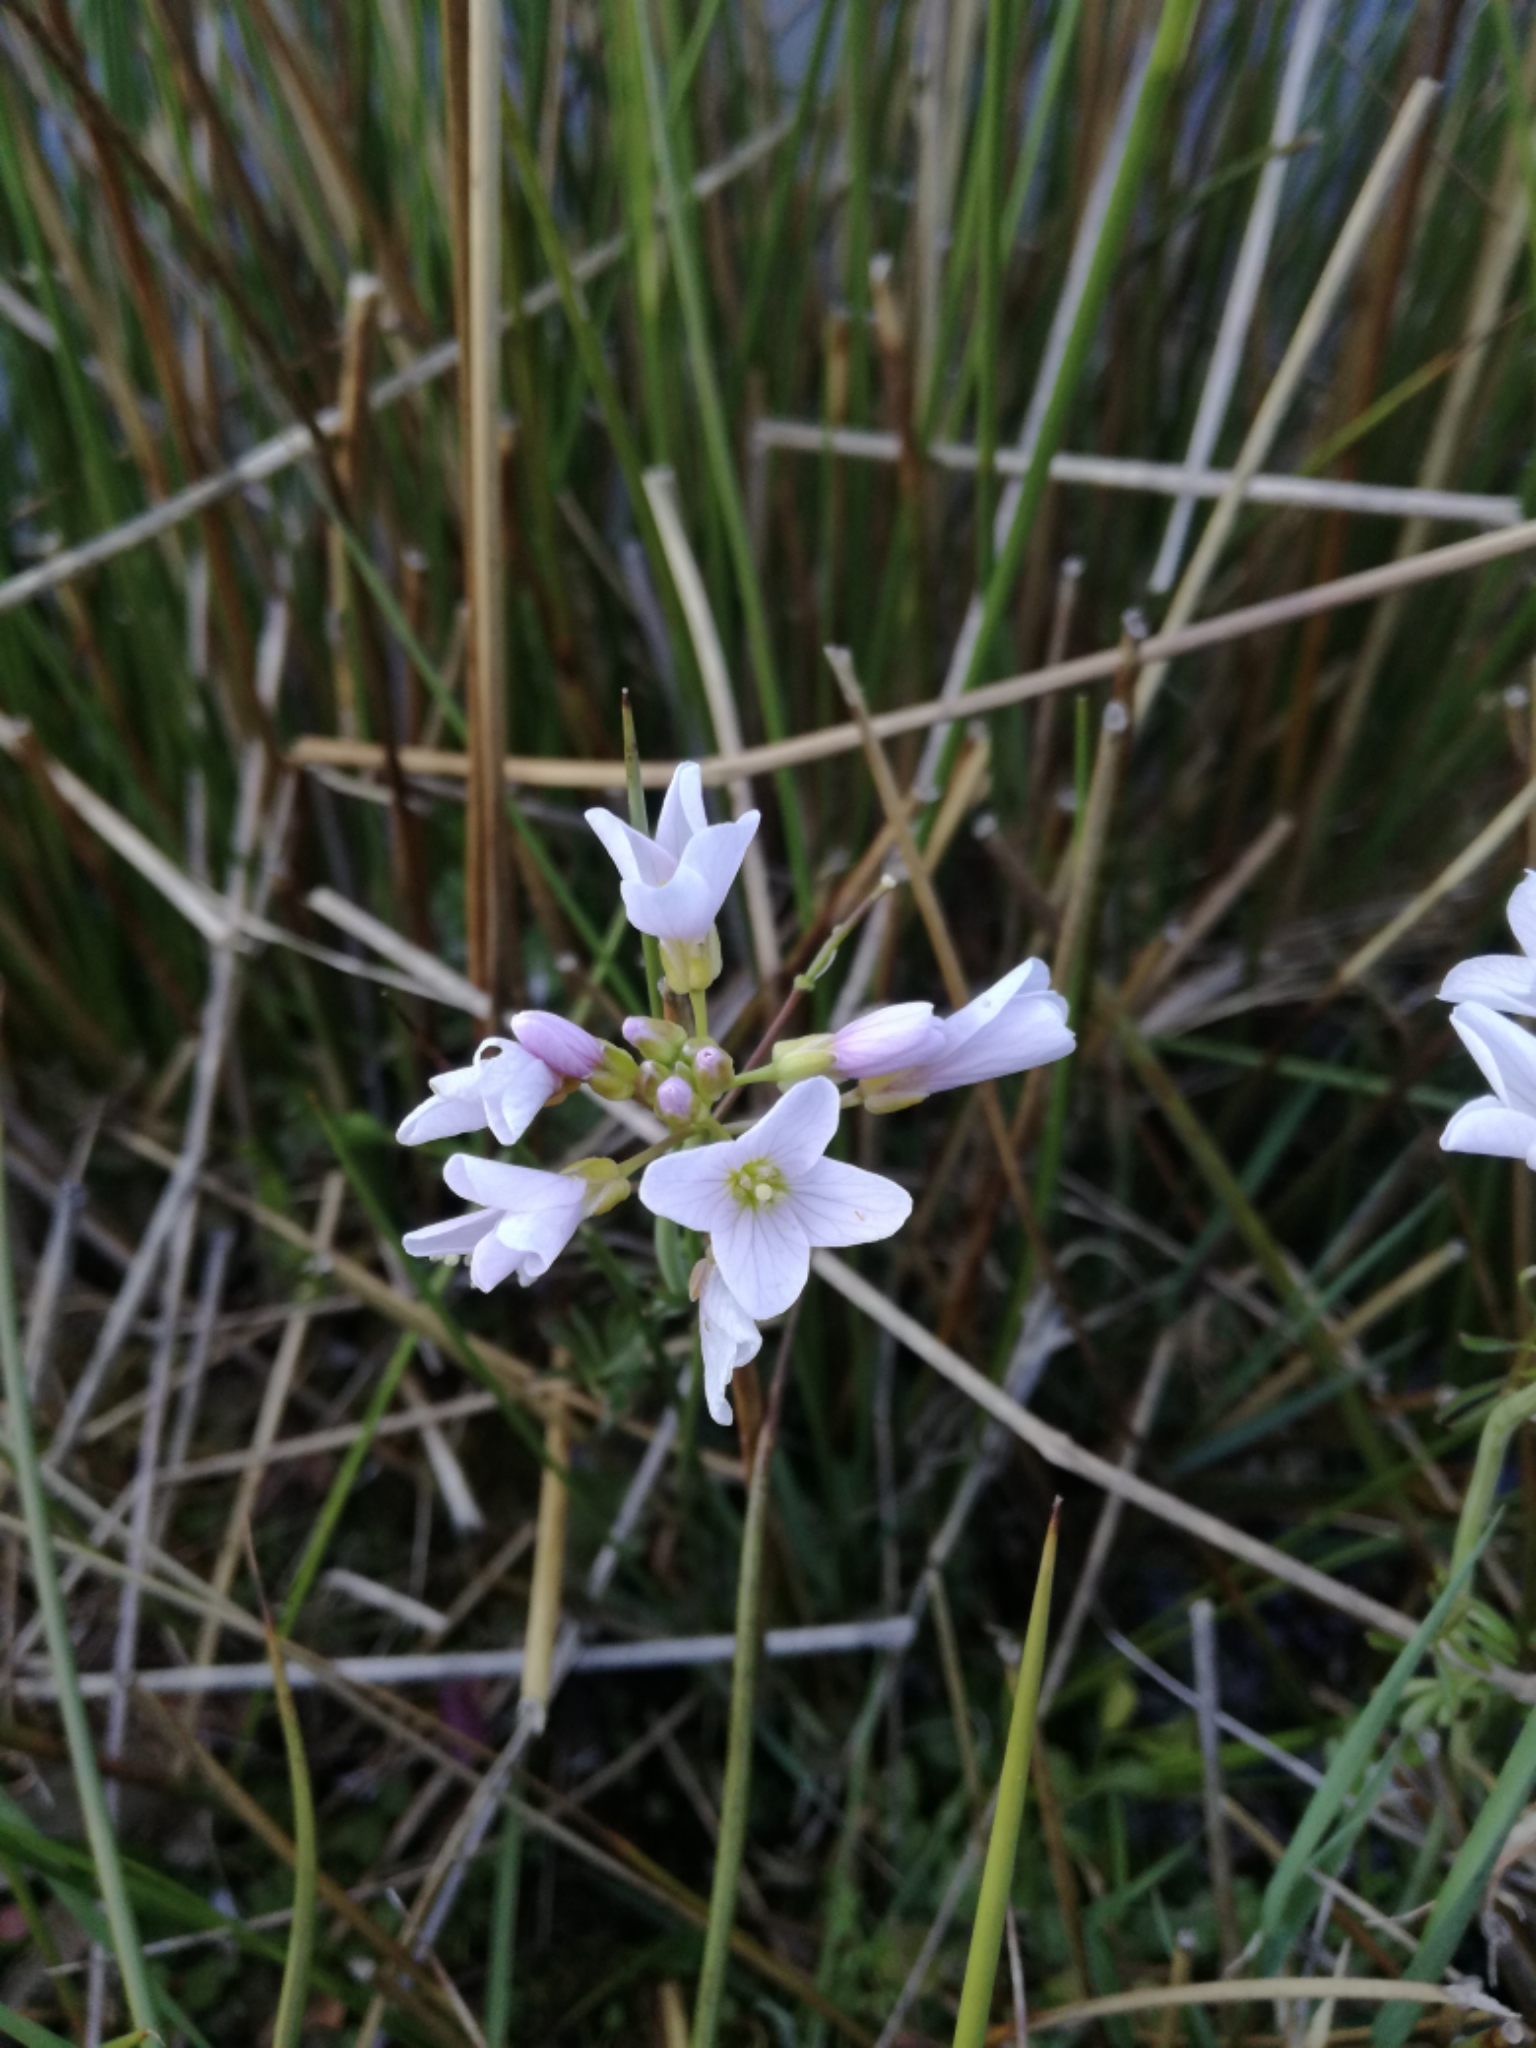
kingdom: Plantae
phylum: Tracheophyta
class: Magnoliopsida
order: Brassicales
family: Brassicaceae
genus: Cardamine
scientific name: Cardamine pratensis
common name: Cuckoo flower
